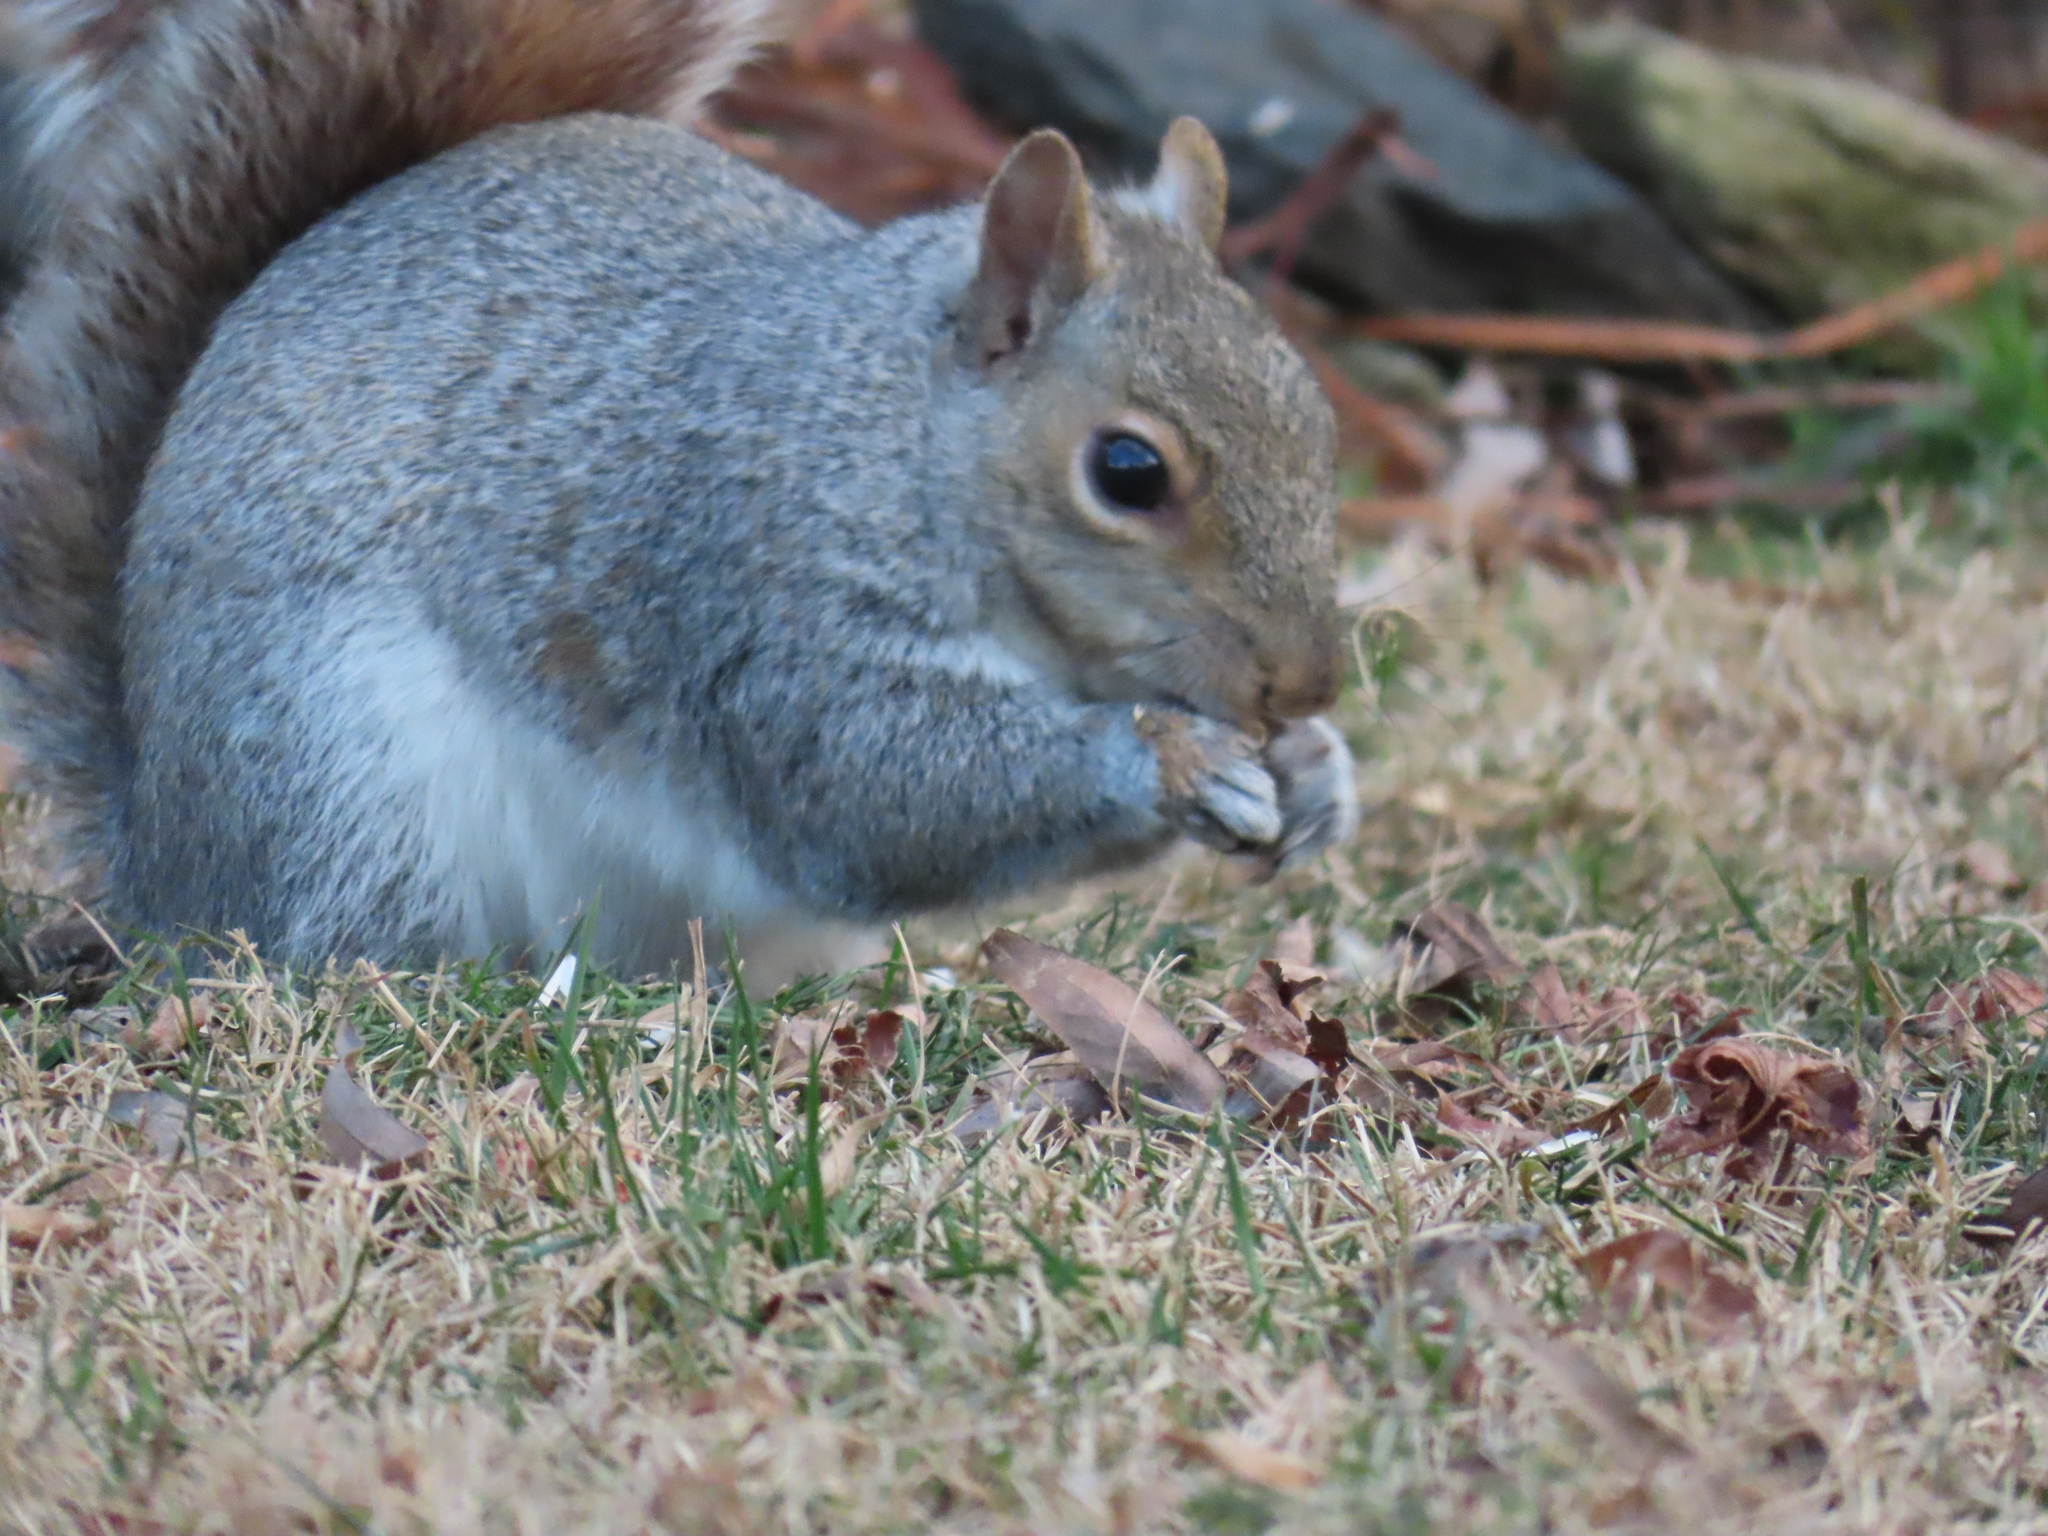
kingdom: Animalia
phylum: Chordata
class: Mammalia
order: Rodentia
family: Sciuridae
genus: Sciurus
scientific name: Sciurus carolinensis
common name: Eastern gray squirrel
